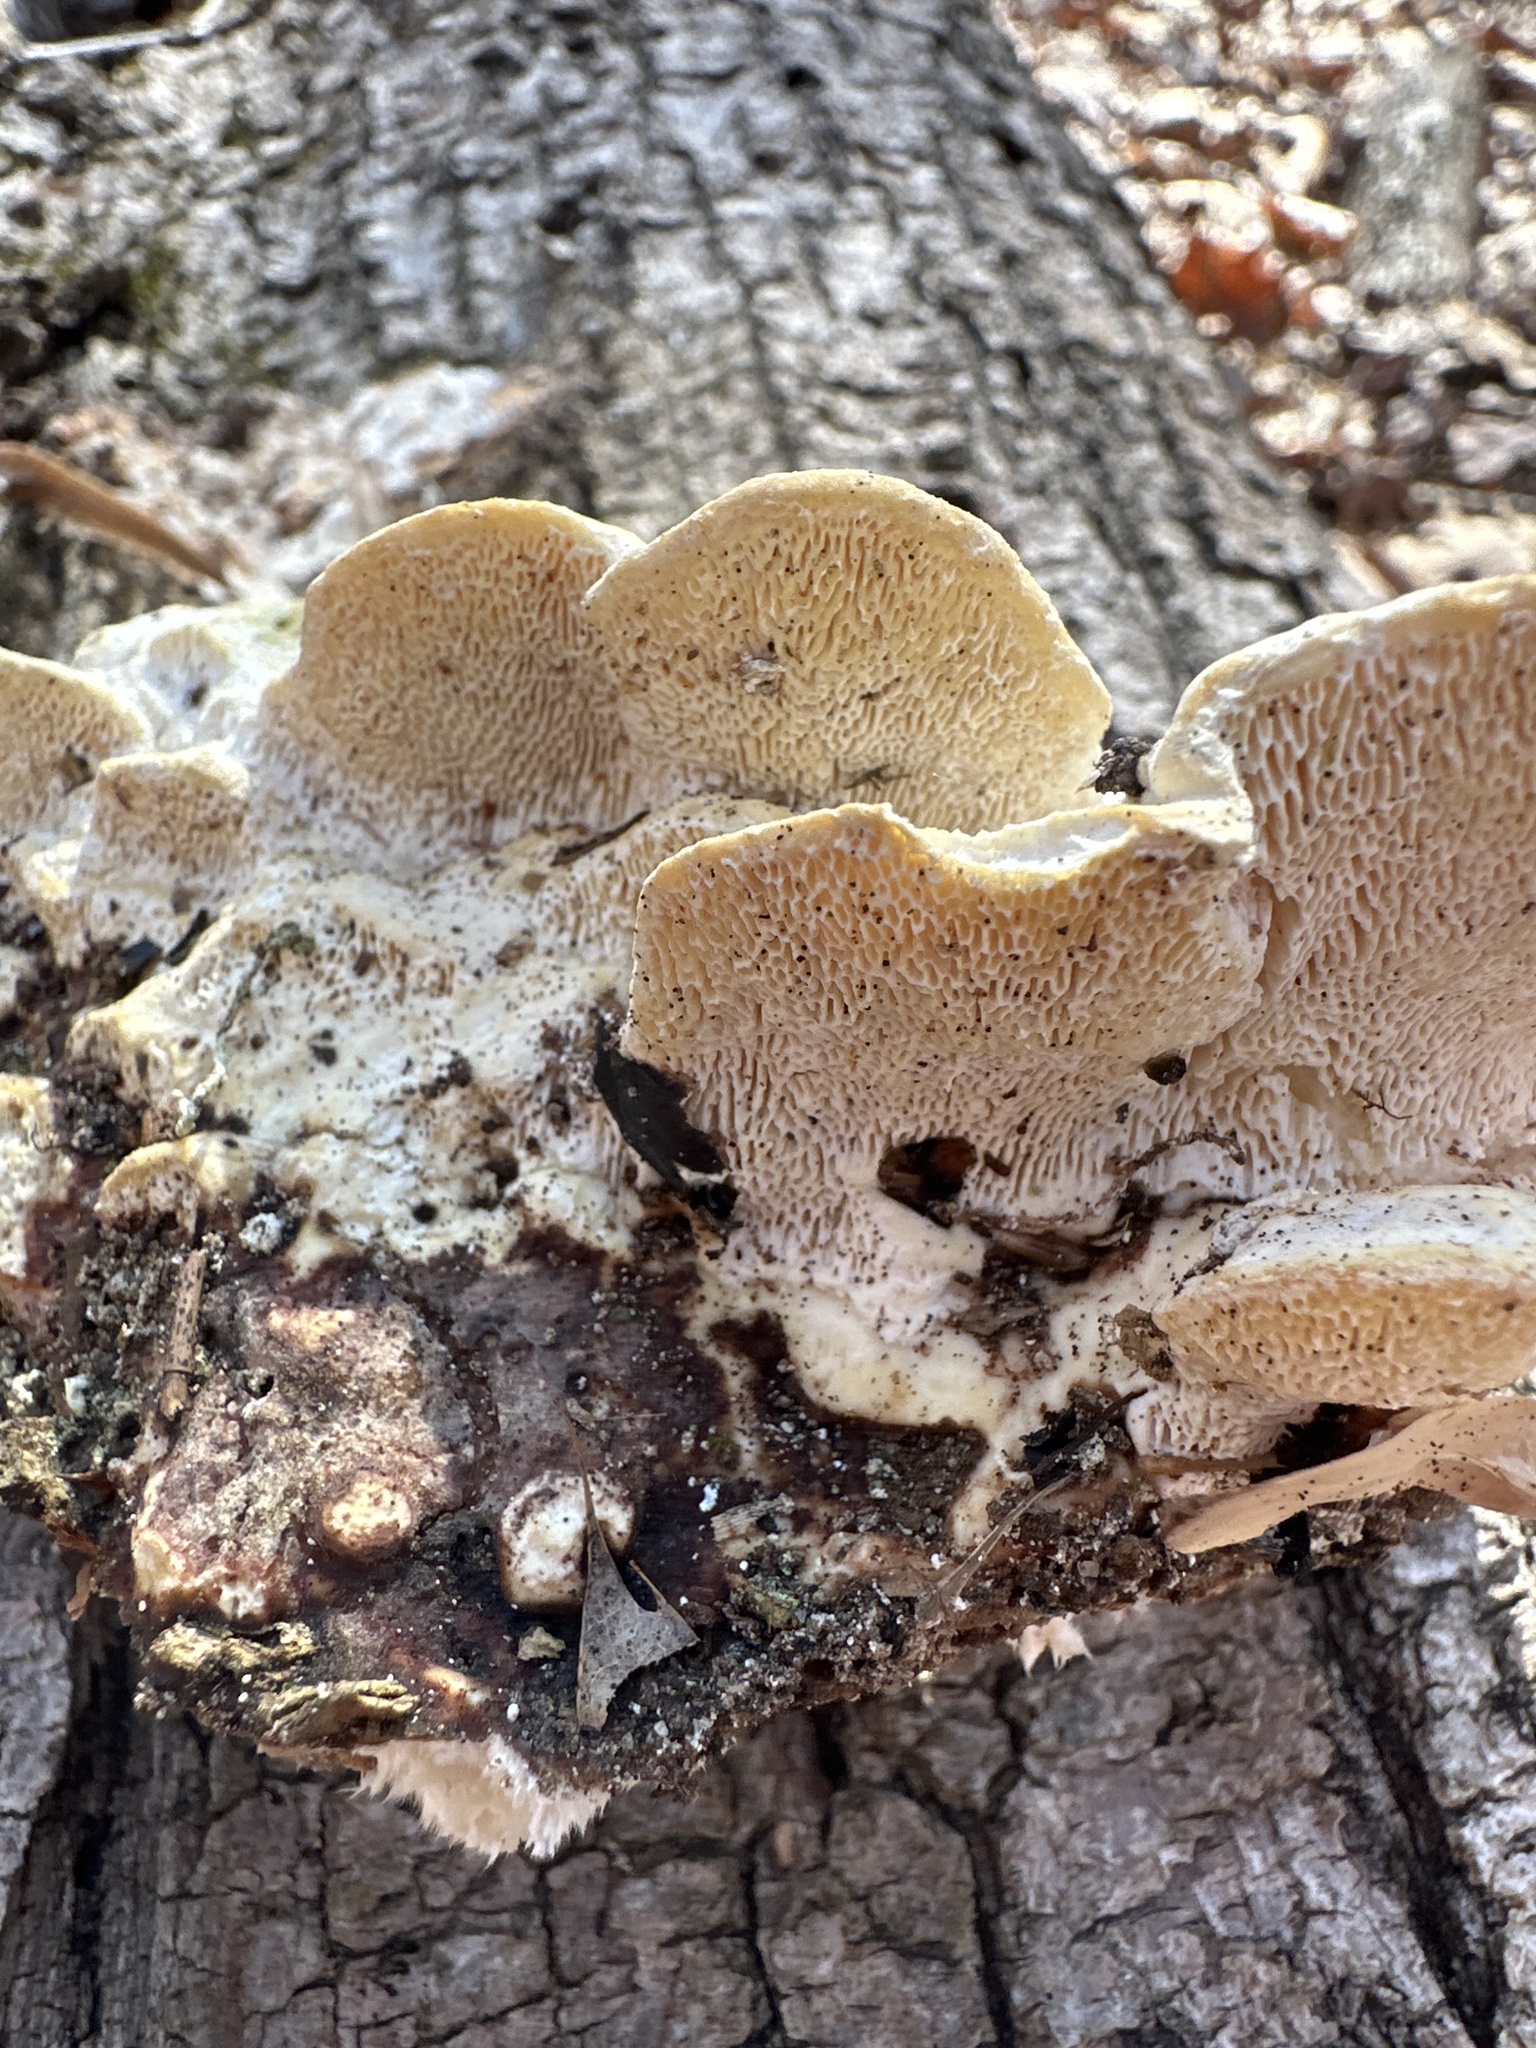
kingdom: Fungi
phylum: Basidiomycota
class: Agaricomycetes
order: Polyporales
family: Polyporaceae
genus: Trametes
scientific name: Trametes gibbosa
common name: Lumpy bracket
